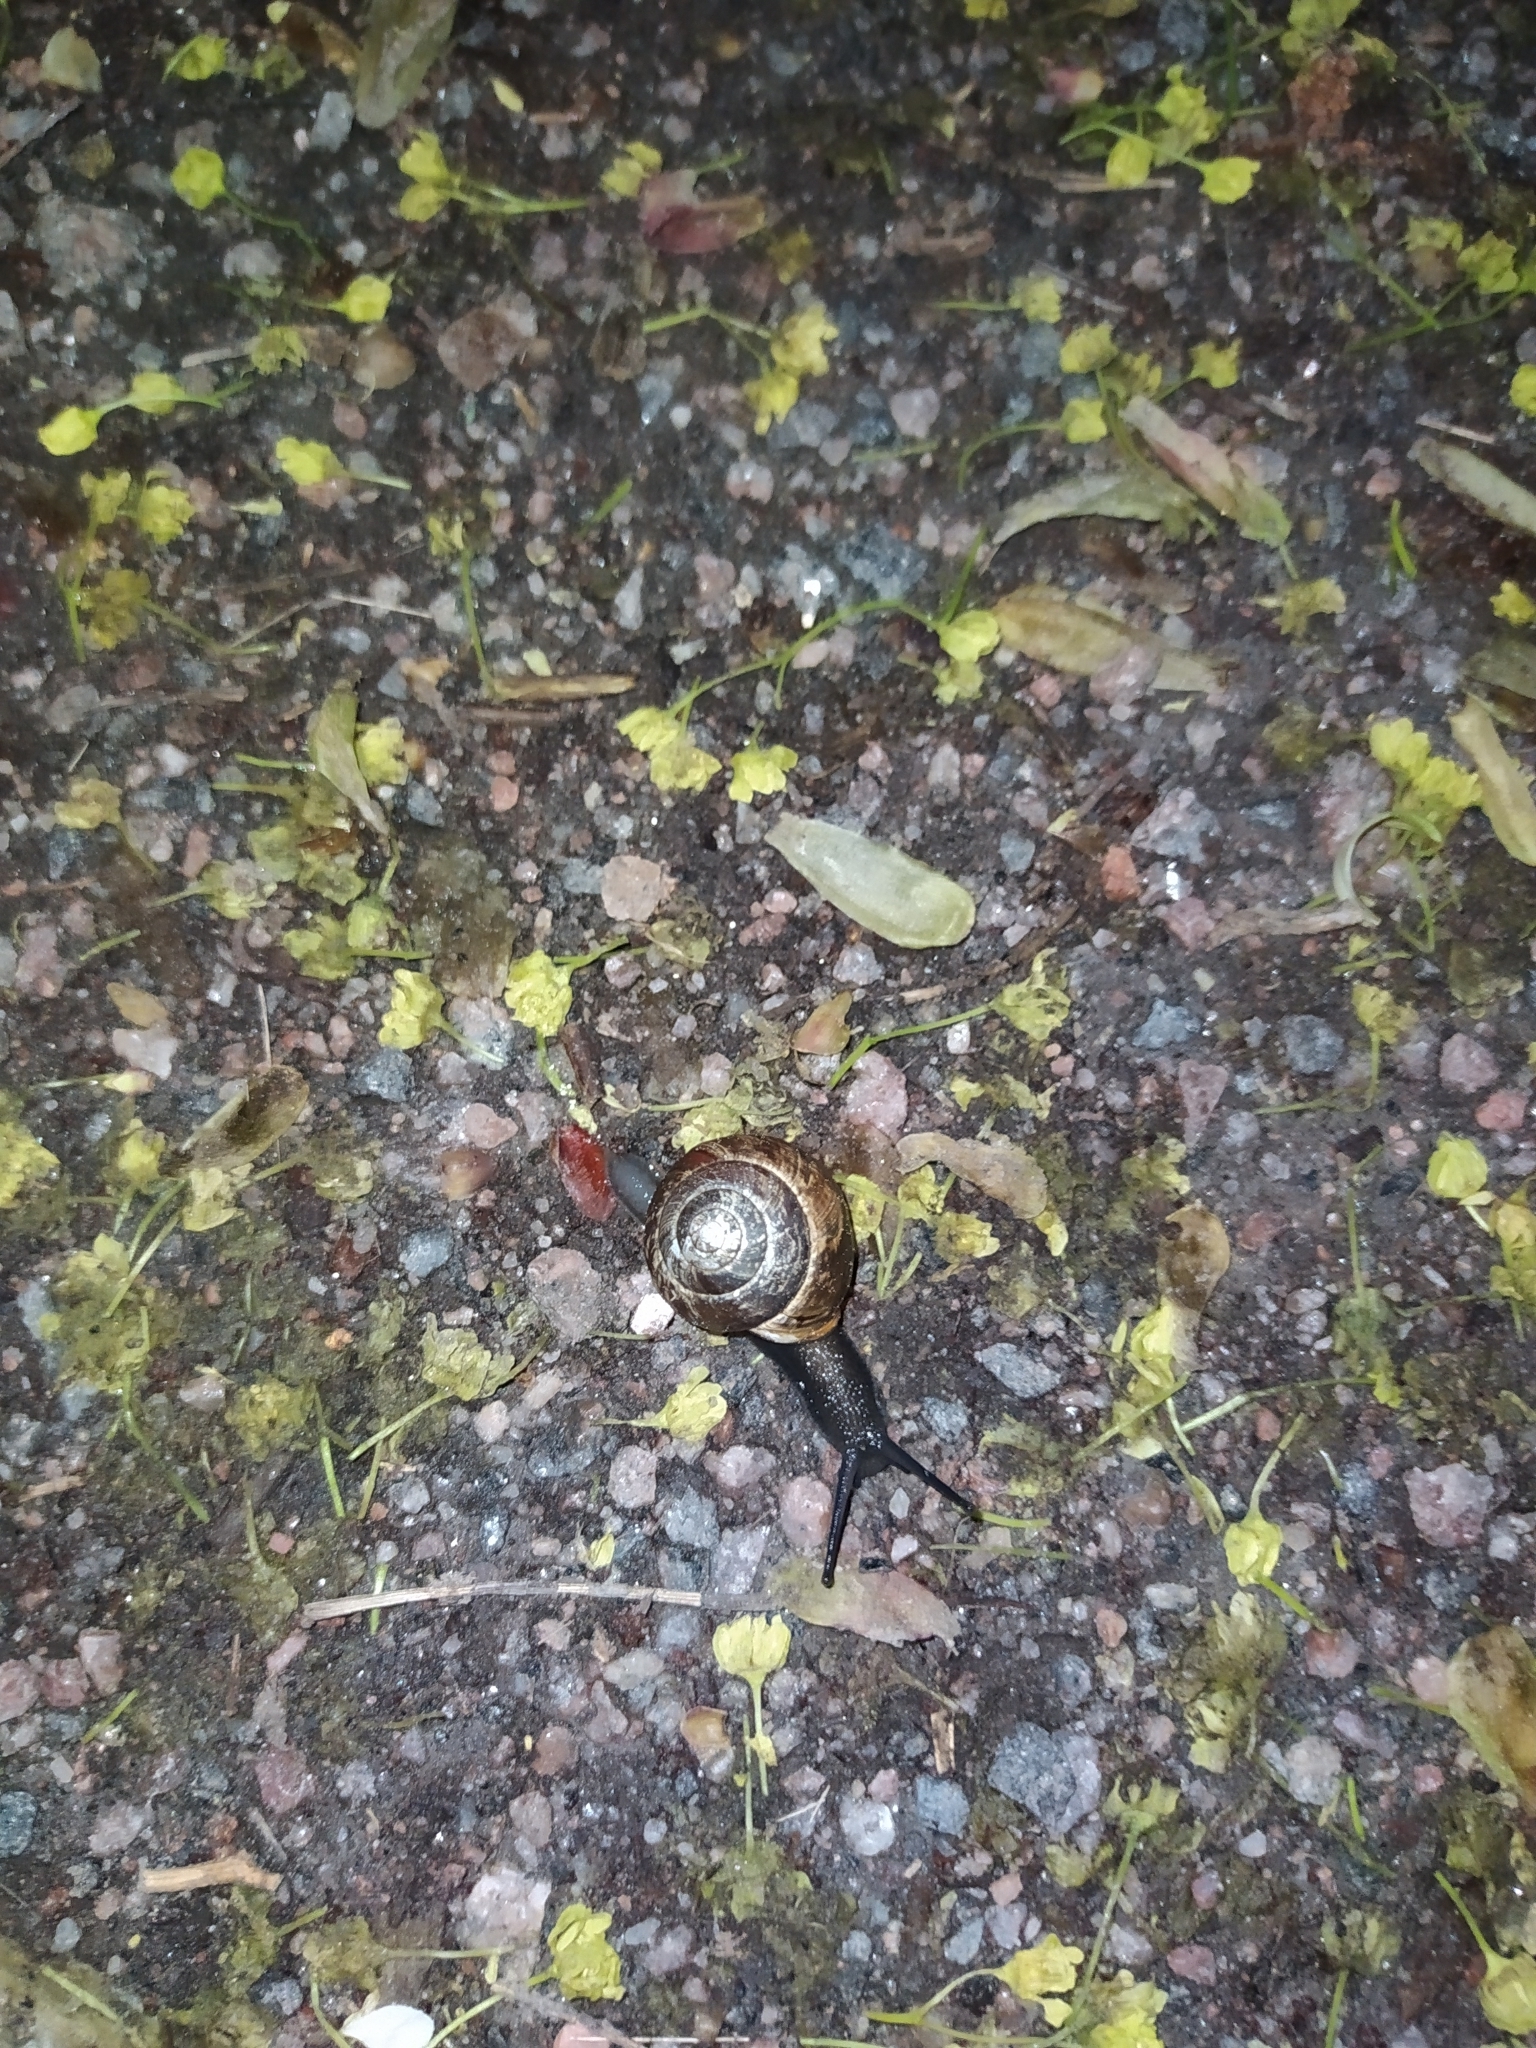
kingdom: Animalia
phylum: Mollusca
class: Gastropoda
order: Stylommatophora
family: Helicidae
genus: Arianta
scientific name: Arianta arbustorum
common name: Copse snail
